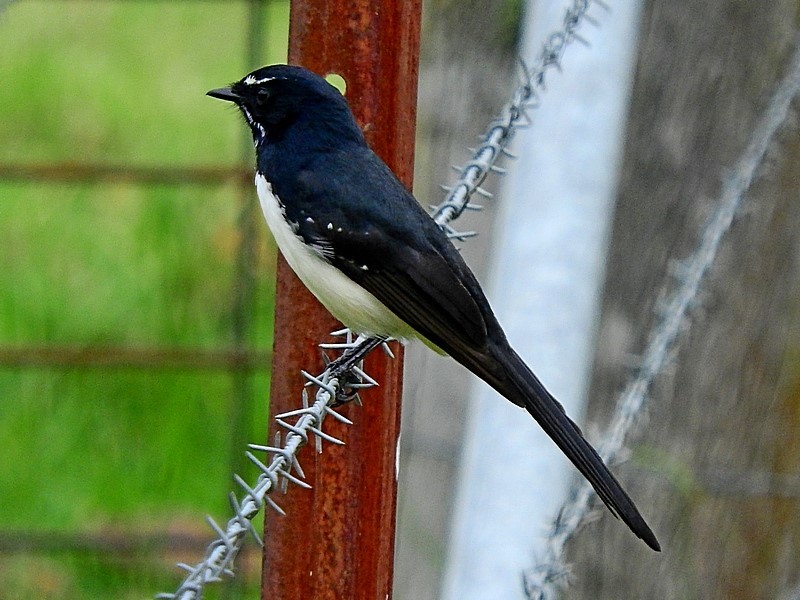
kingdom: Animalia
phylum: Chordata
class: Aves
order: Passeriformes
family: Rhipiduridae
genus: Rhipidura
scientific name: Rhipidura leucophrys
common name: Willie wagtail
